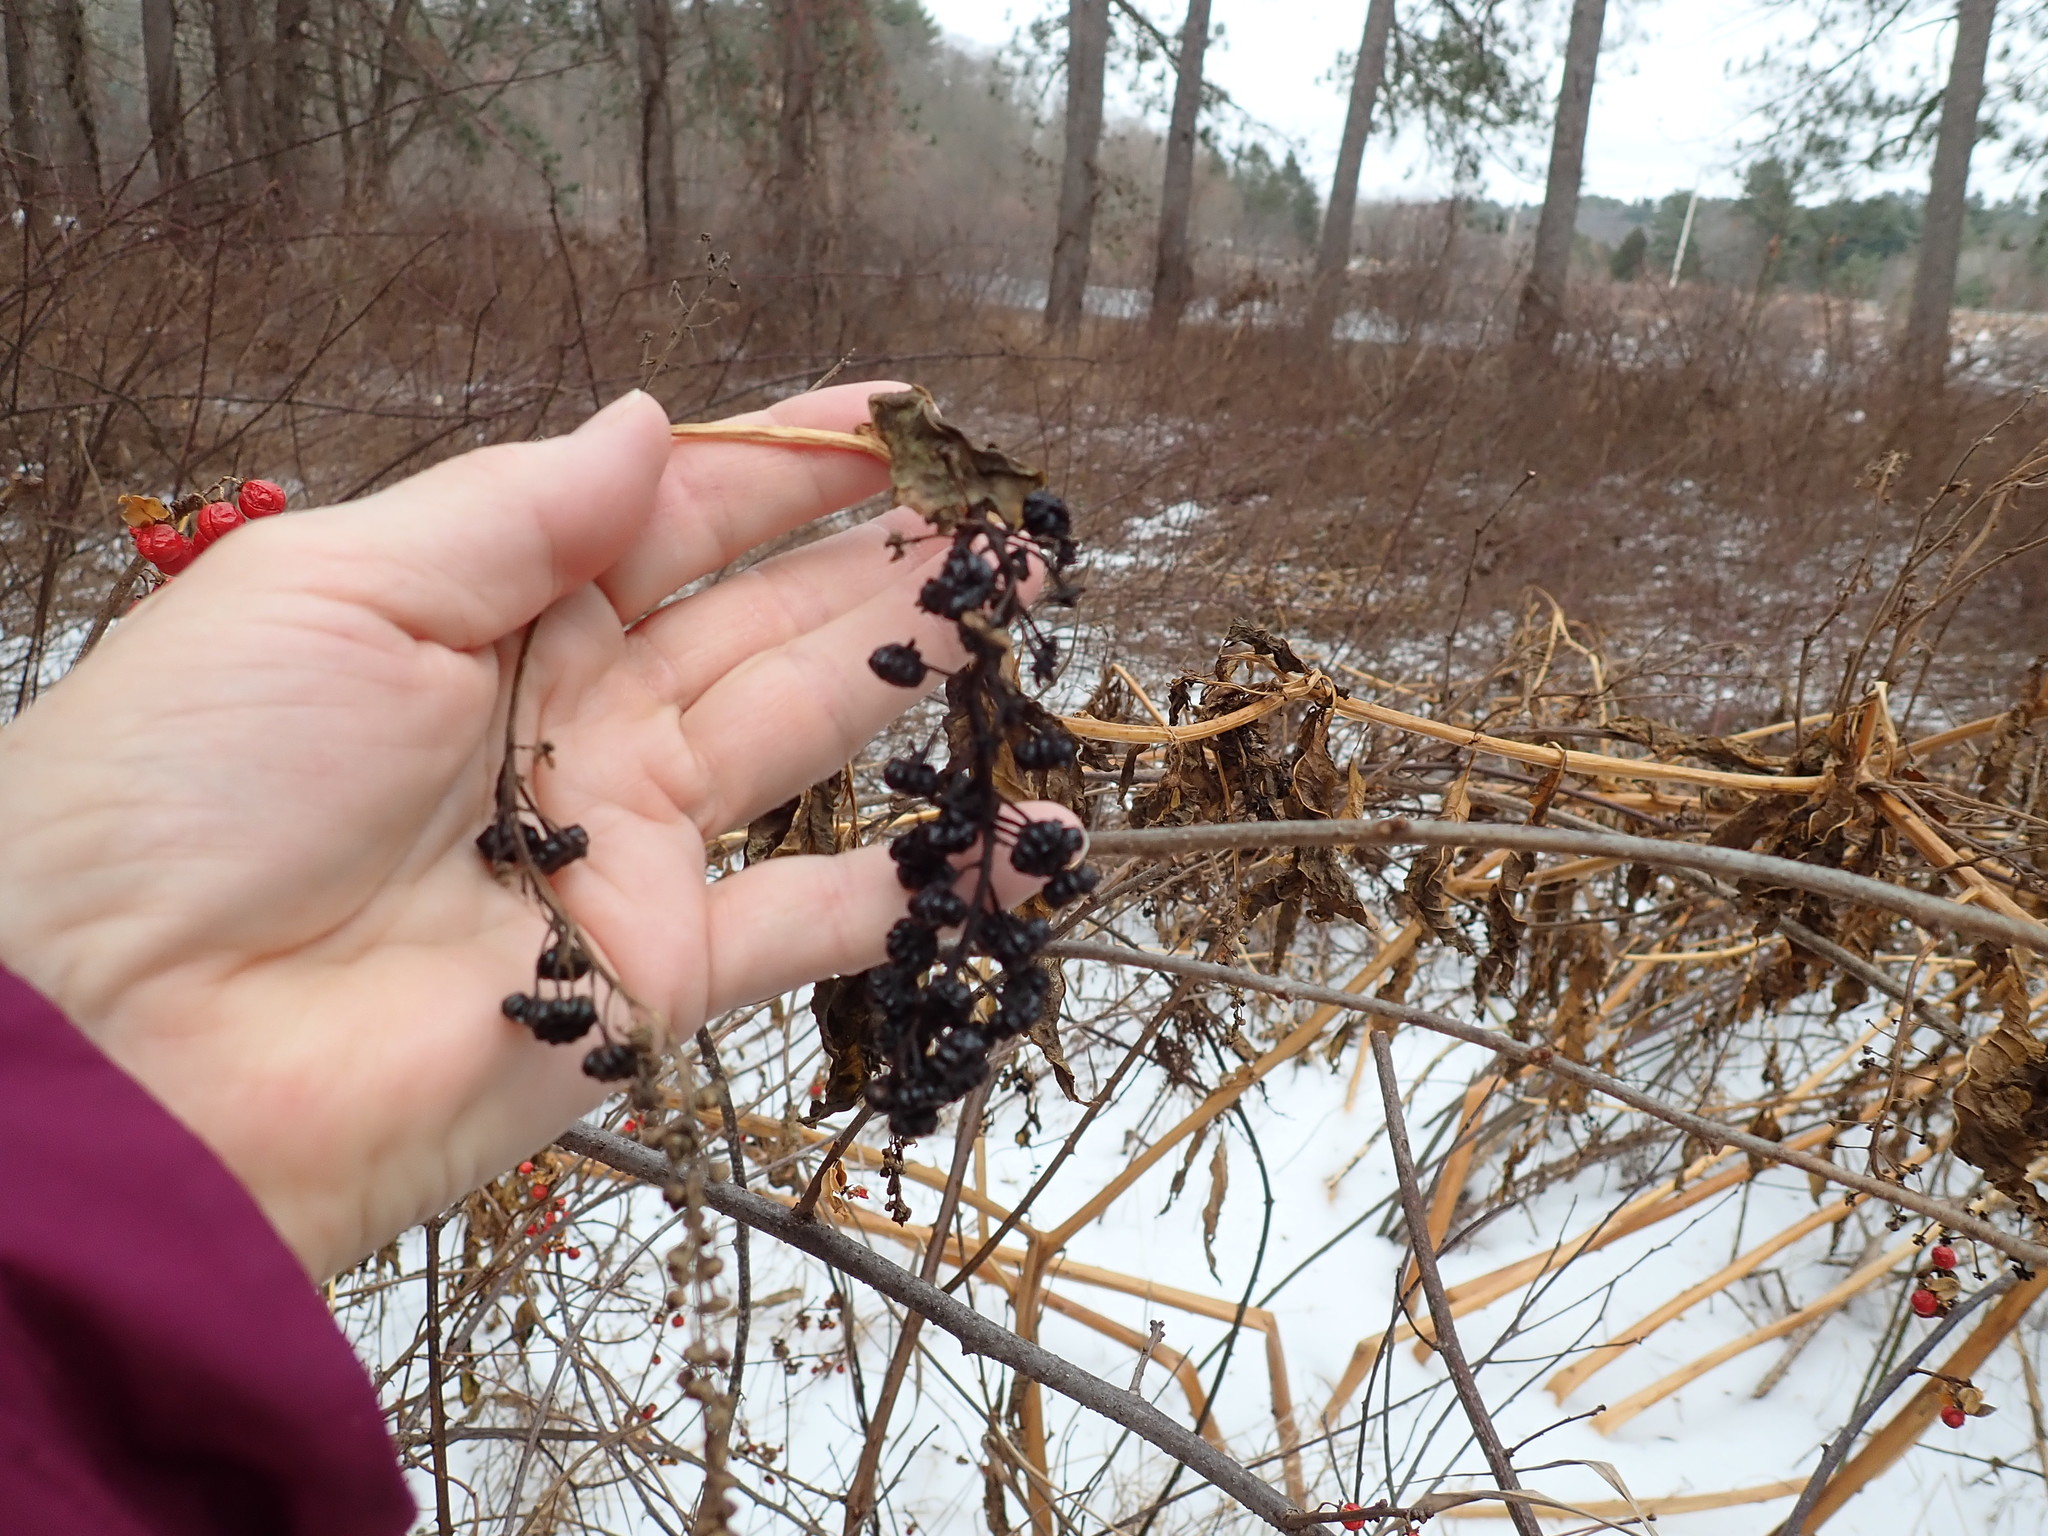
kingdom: Plantae
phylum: Tracheophyta
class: Magnoliopsida
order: Caryophyllales
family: Phytolaccaceae
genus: Phytolacca
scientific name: Phytolacca americana
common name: American pokeweed
